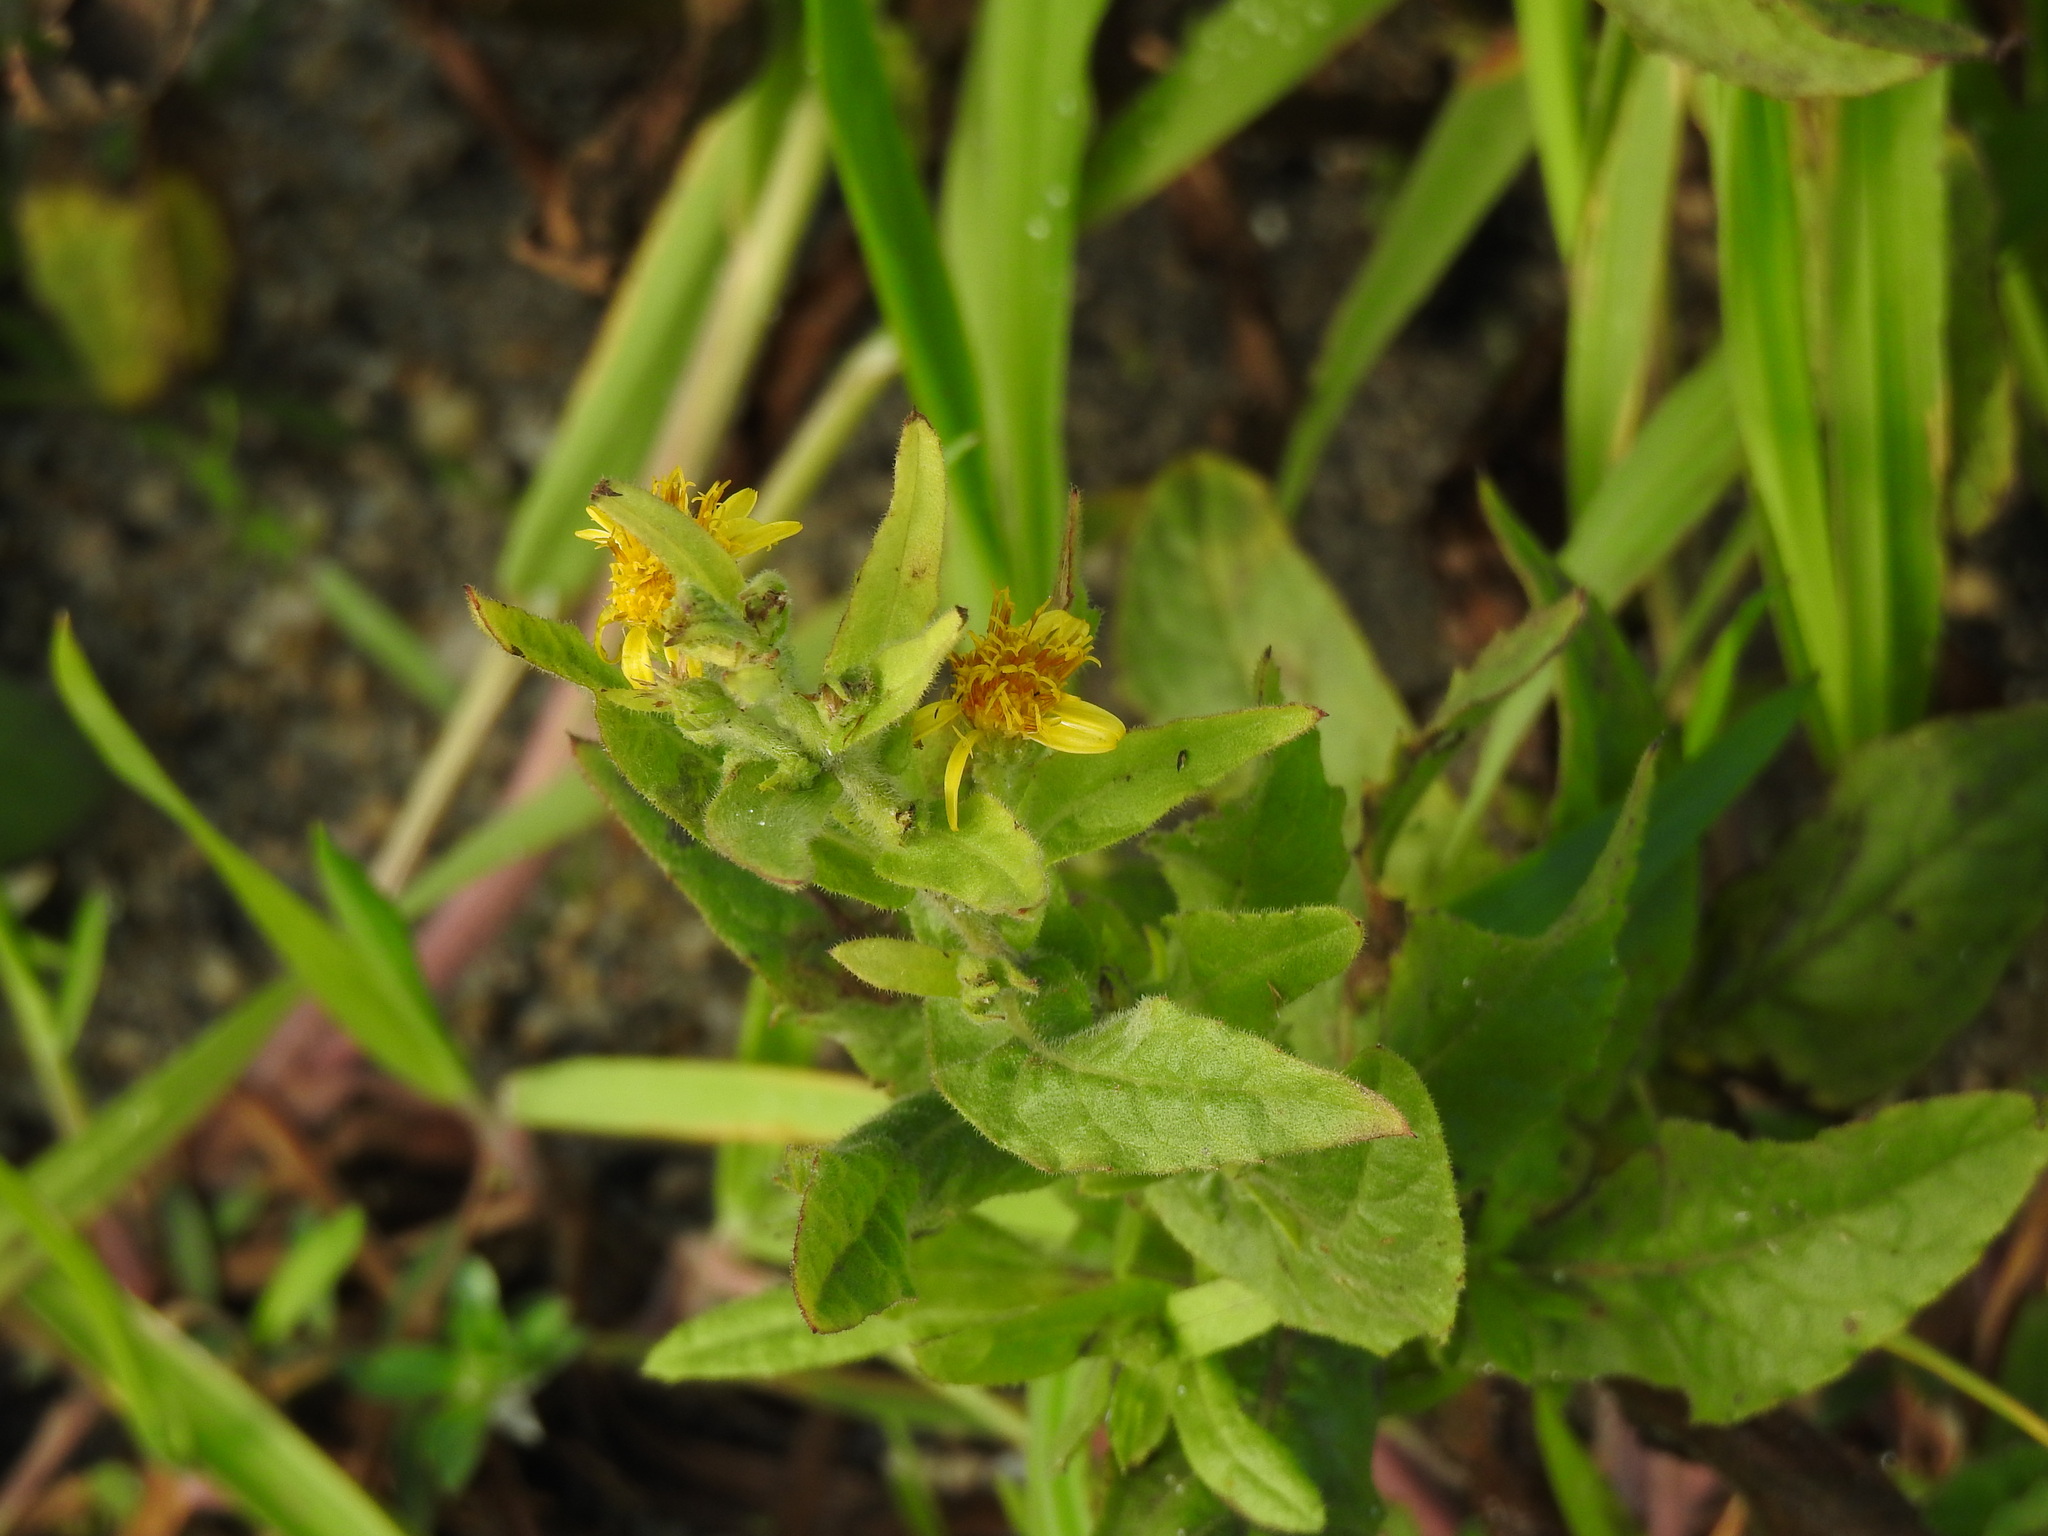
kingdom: Plantae
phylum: Tracheophyta
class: Magnoliopsida
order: Asterales
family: Asteraceae
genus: Dittrichia
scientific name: Dittrichia viscosa
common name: Woody fleabane
